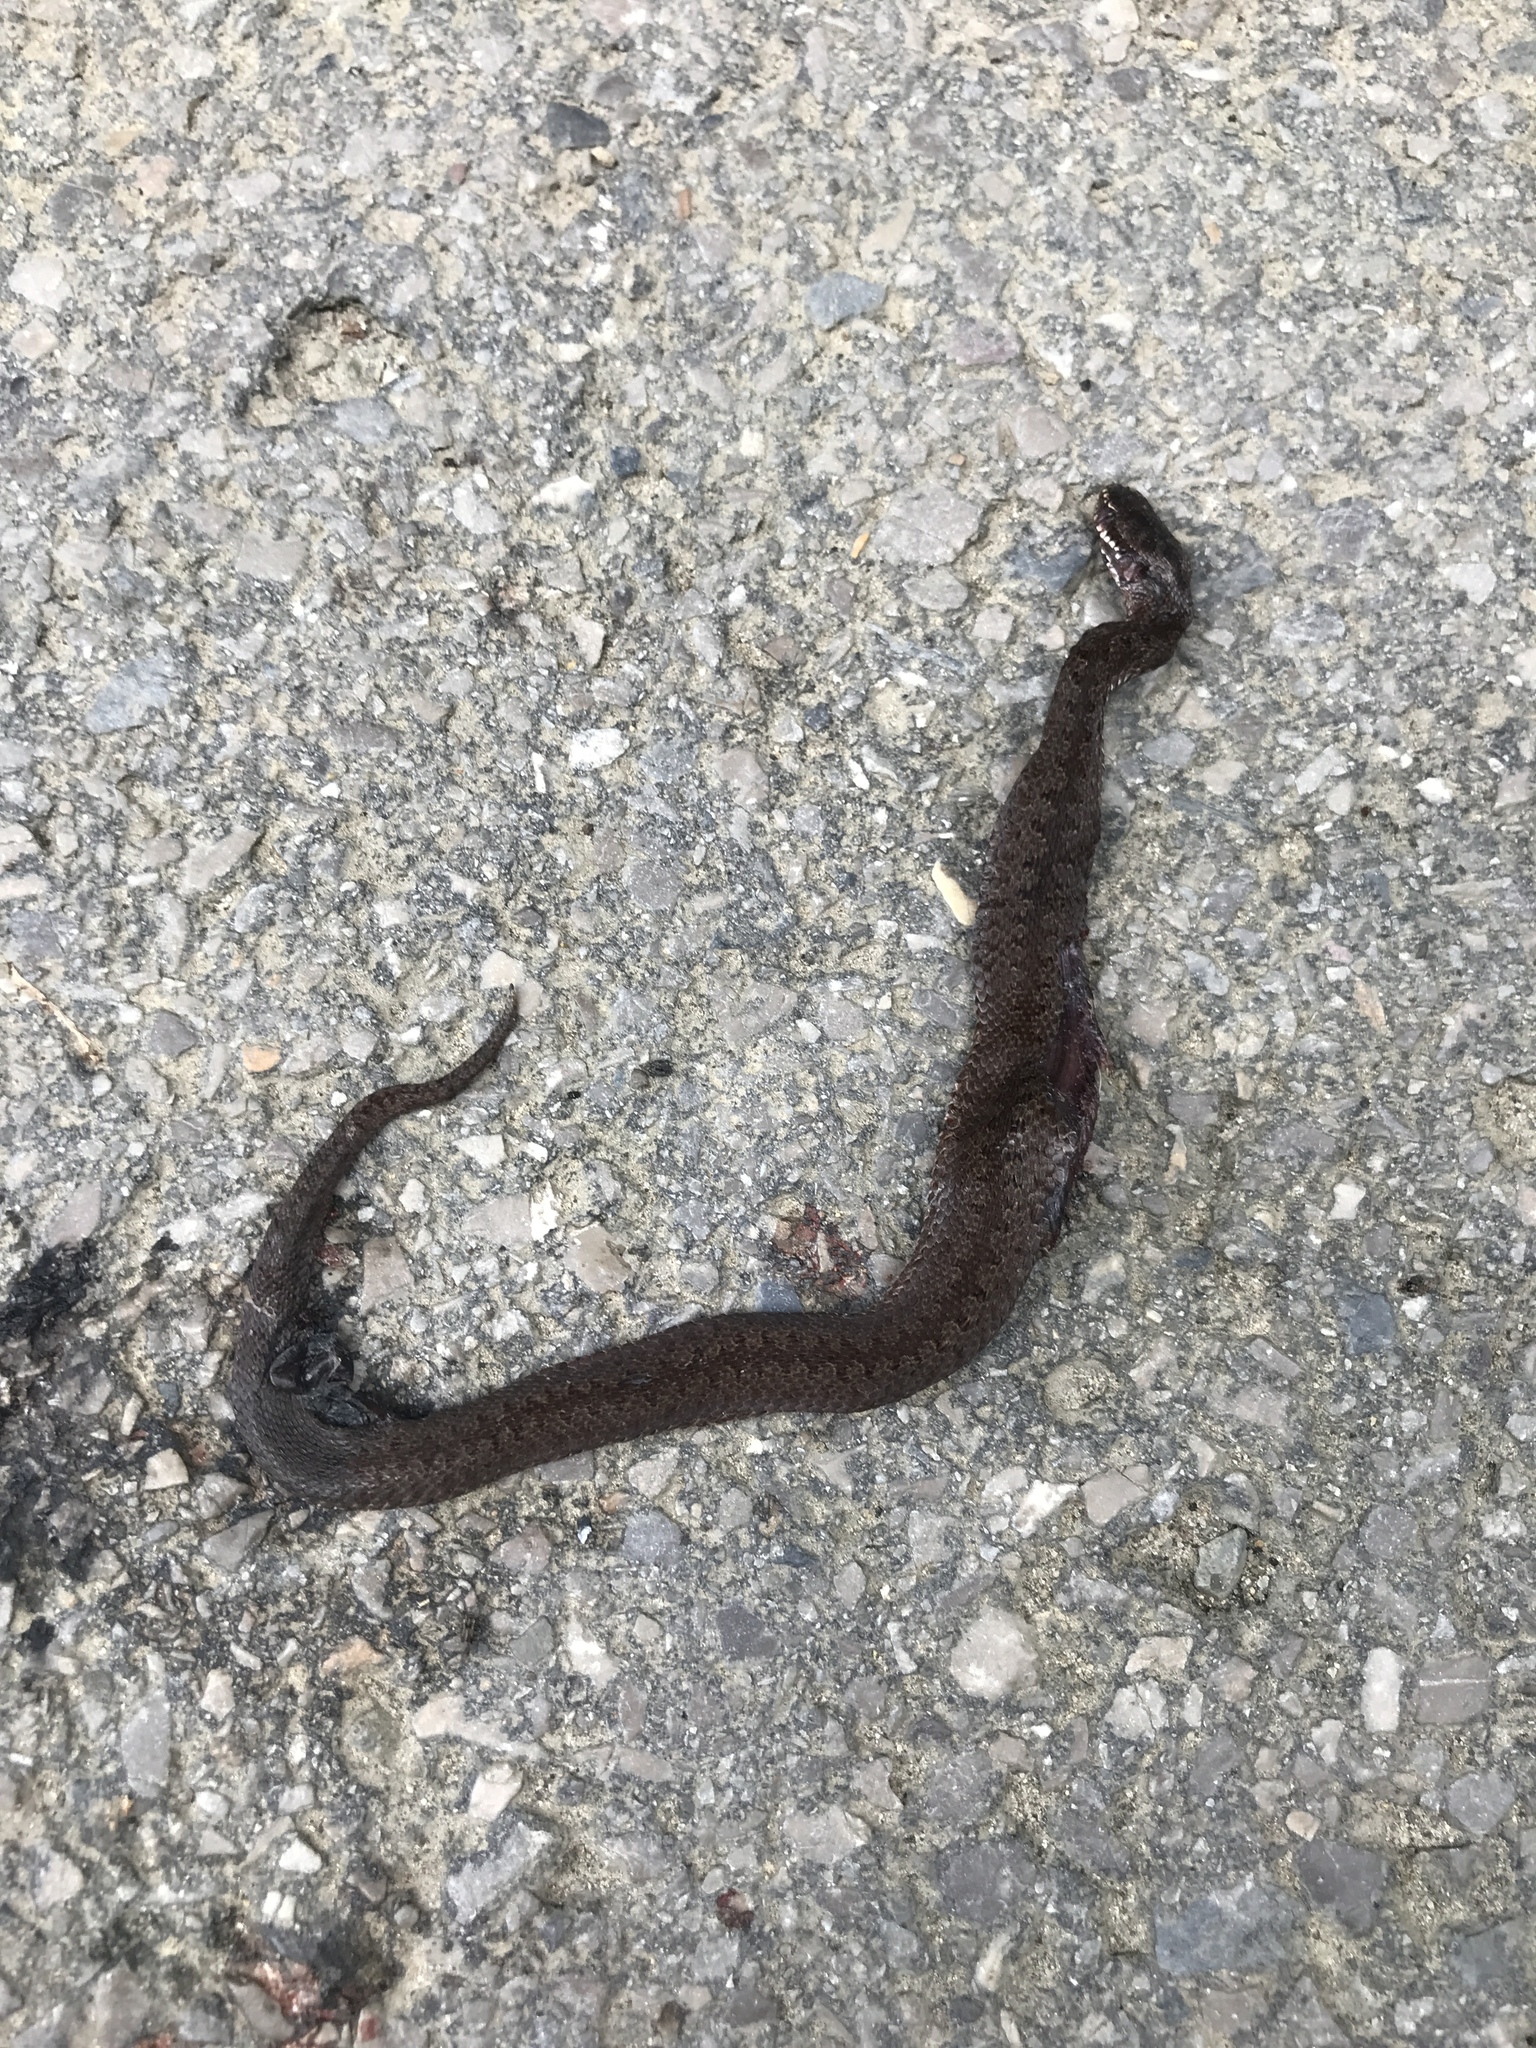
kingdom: Animalia
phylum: Chordata
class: Squamata
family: Viperidae
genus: Vipera
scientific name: Vipera berus
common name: Adder
